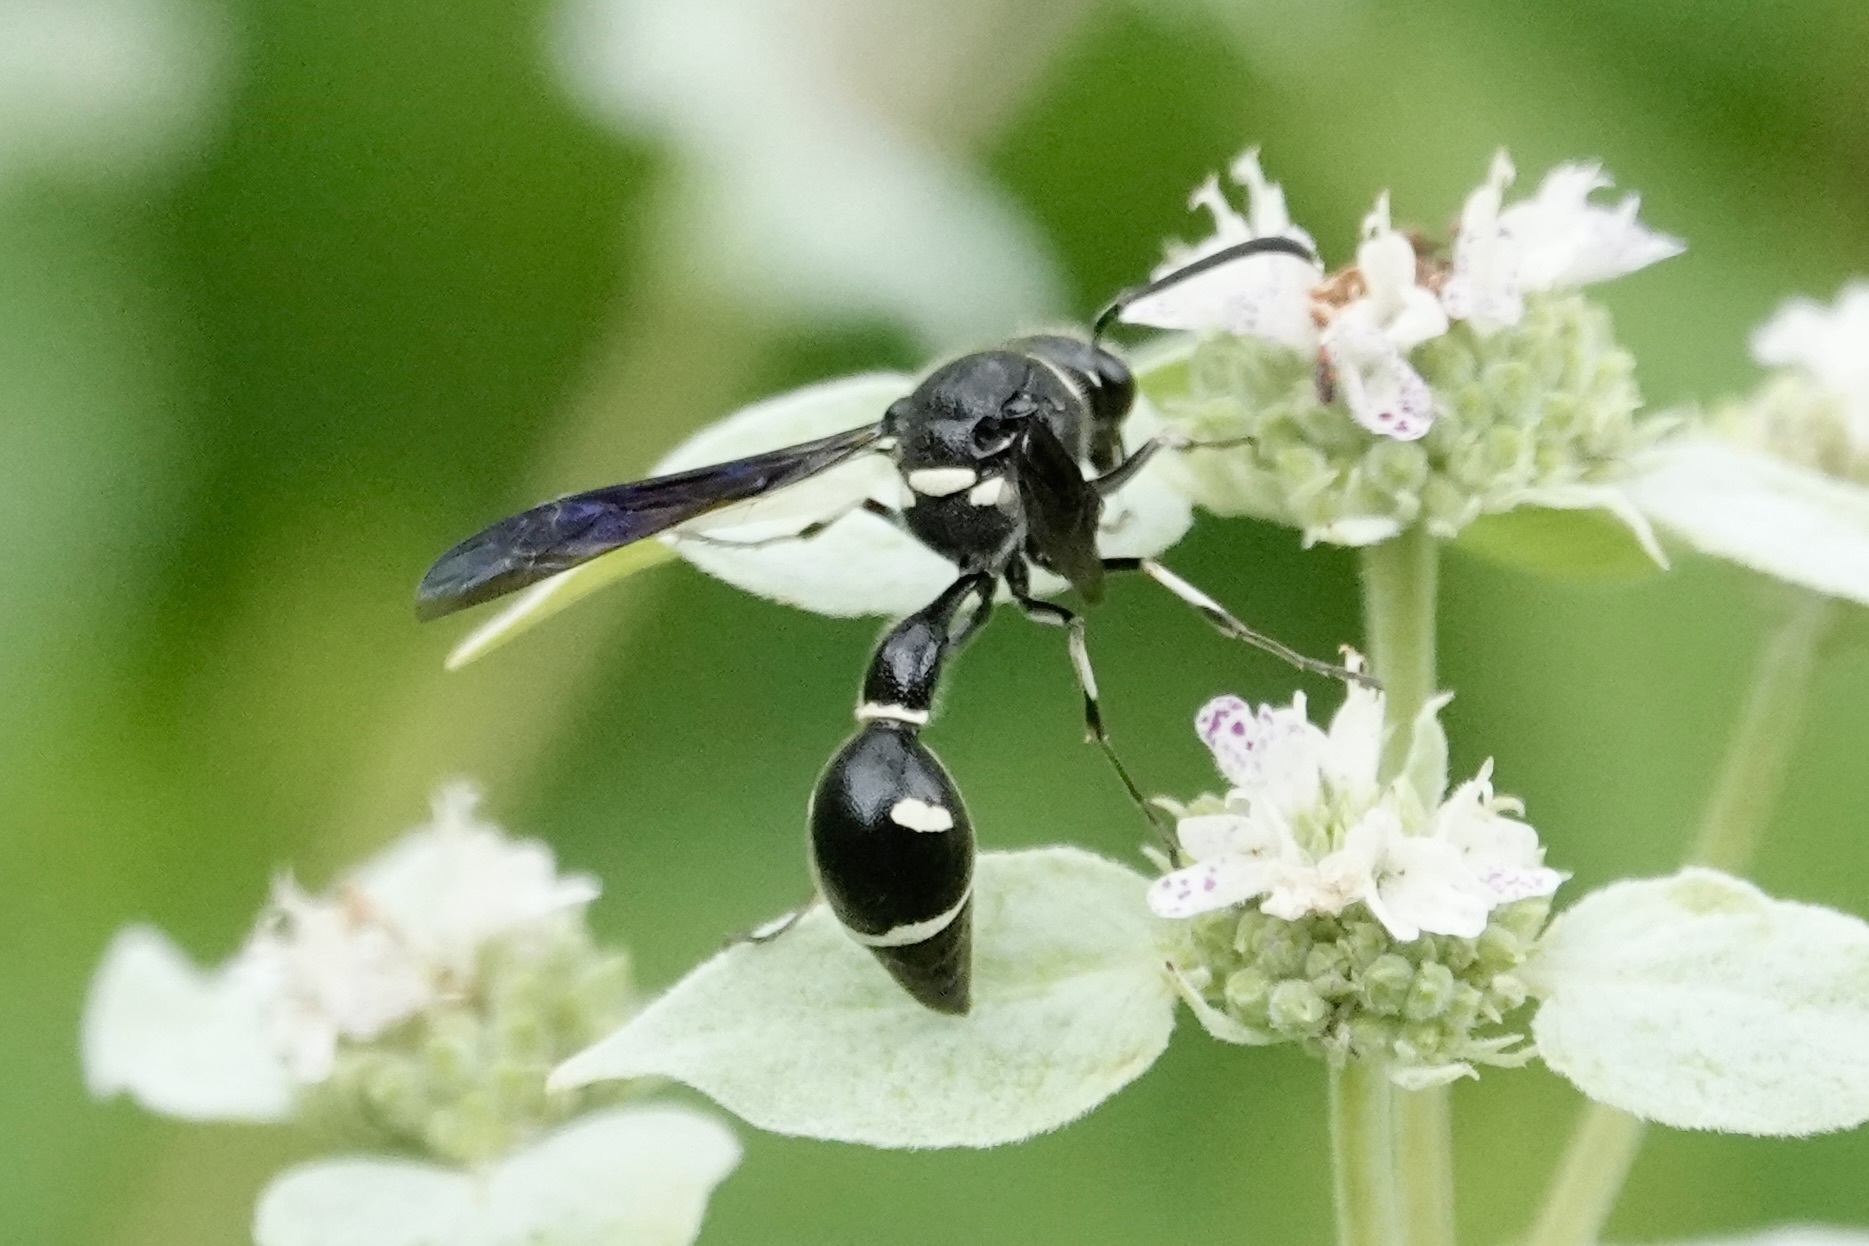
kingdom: Animalia
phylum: Arthropoda
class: Insecta
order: Hymenoptera
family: Vespidae
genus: Eumenes
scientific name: Eumenes fraternus
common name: Fraternal potter wasp
